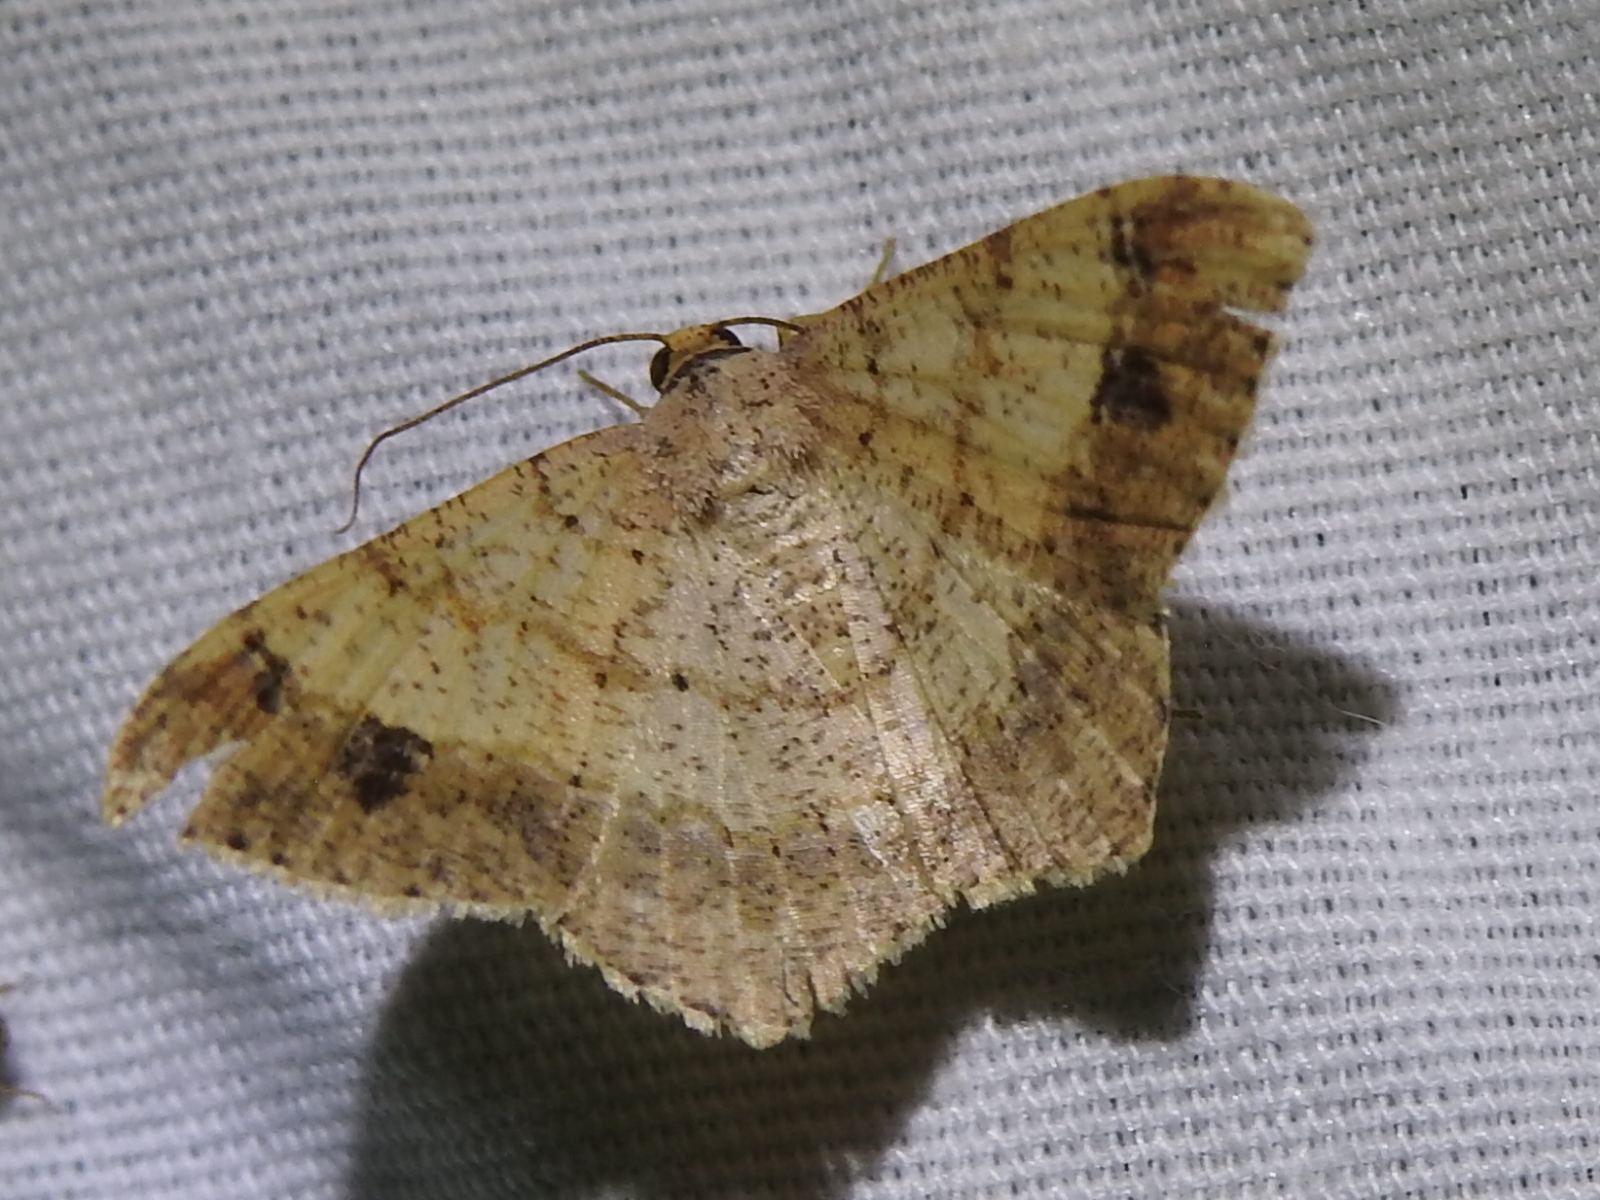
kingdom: Animalia
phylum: Arthropoda
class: Insecta
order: Lepidoptera
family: Geometridae
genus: Macaria
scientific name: Macaria abydata
